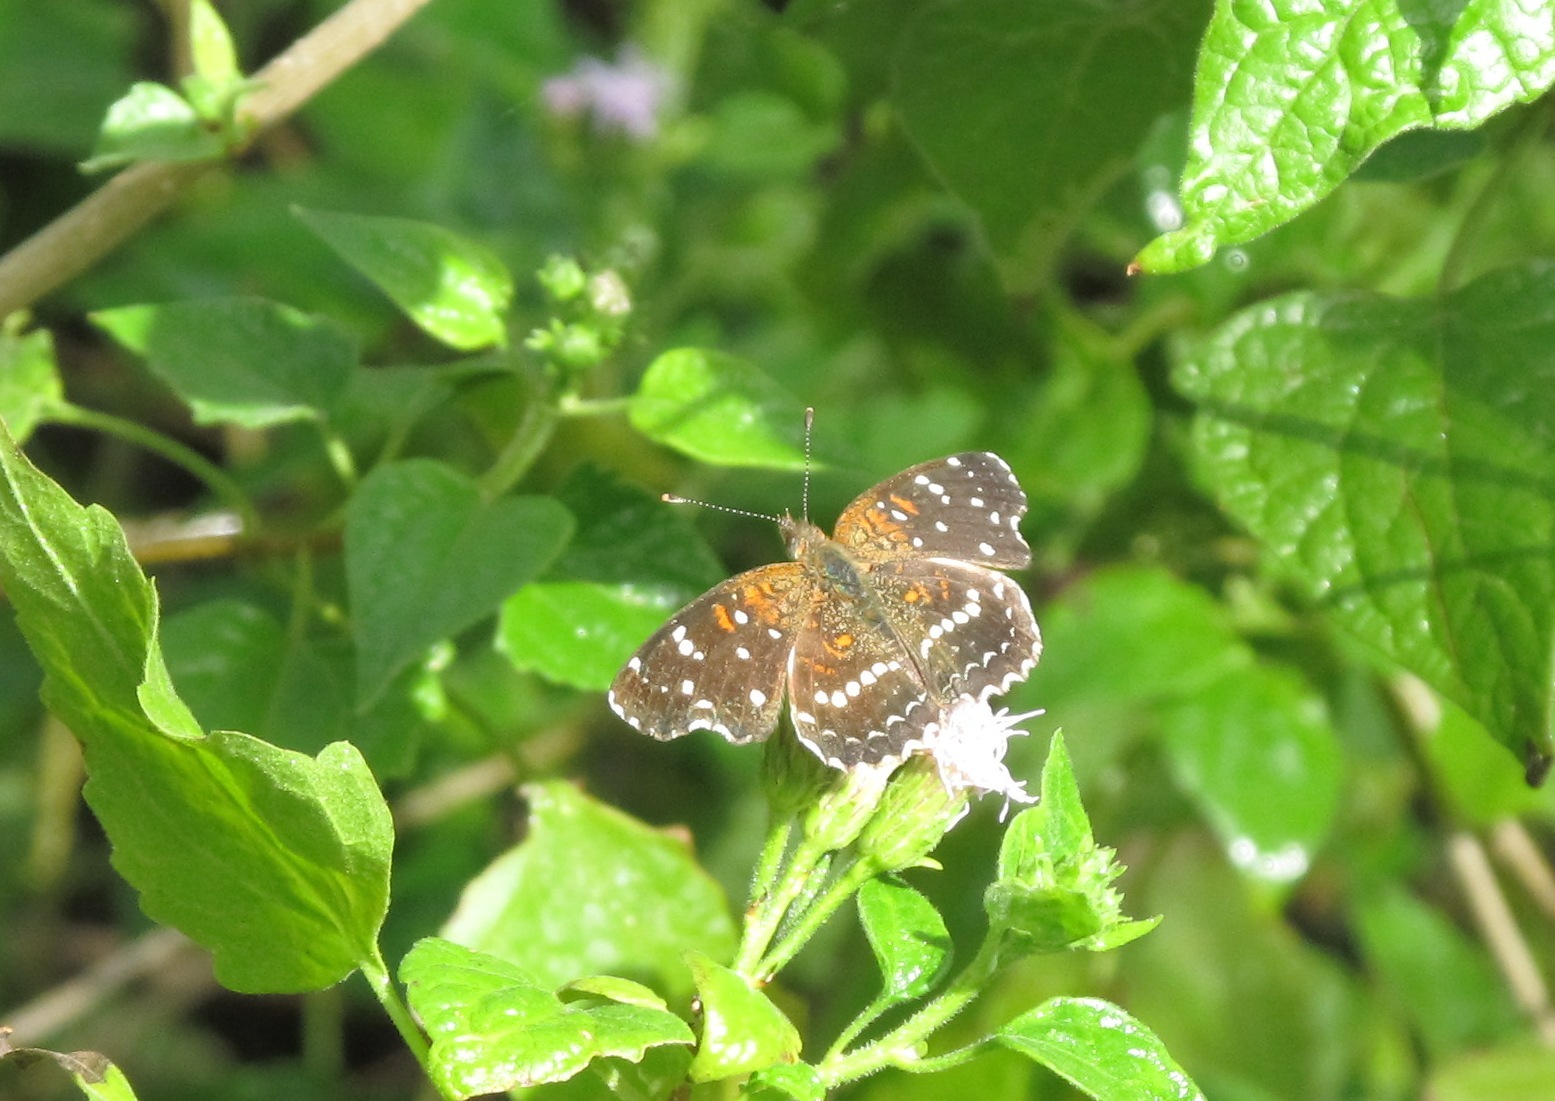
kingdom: Animalia
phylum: Arthropoda
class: Insecta
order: Lepidoptera
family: Nymphalidae
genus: Anthanassa
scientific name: Anthanassa texana
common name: Texan crescent
